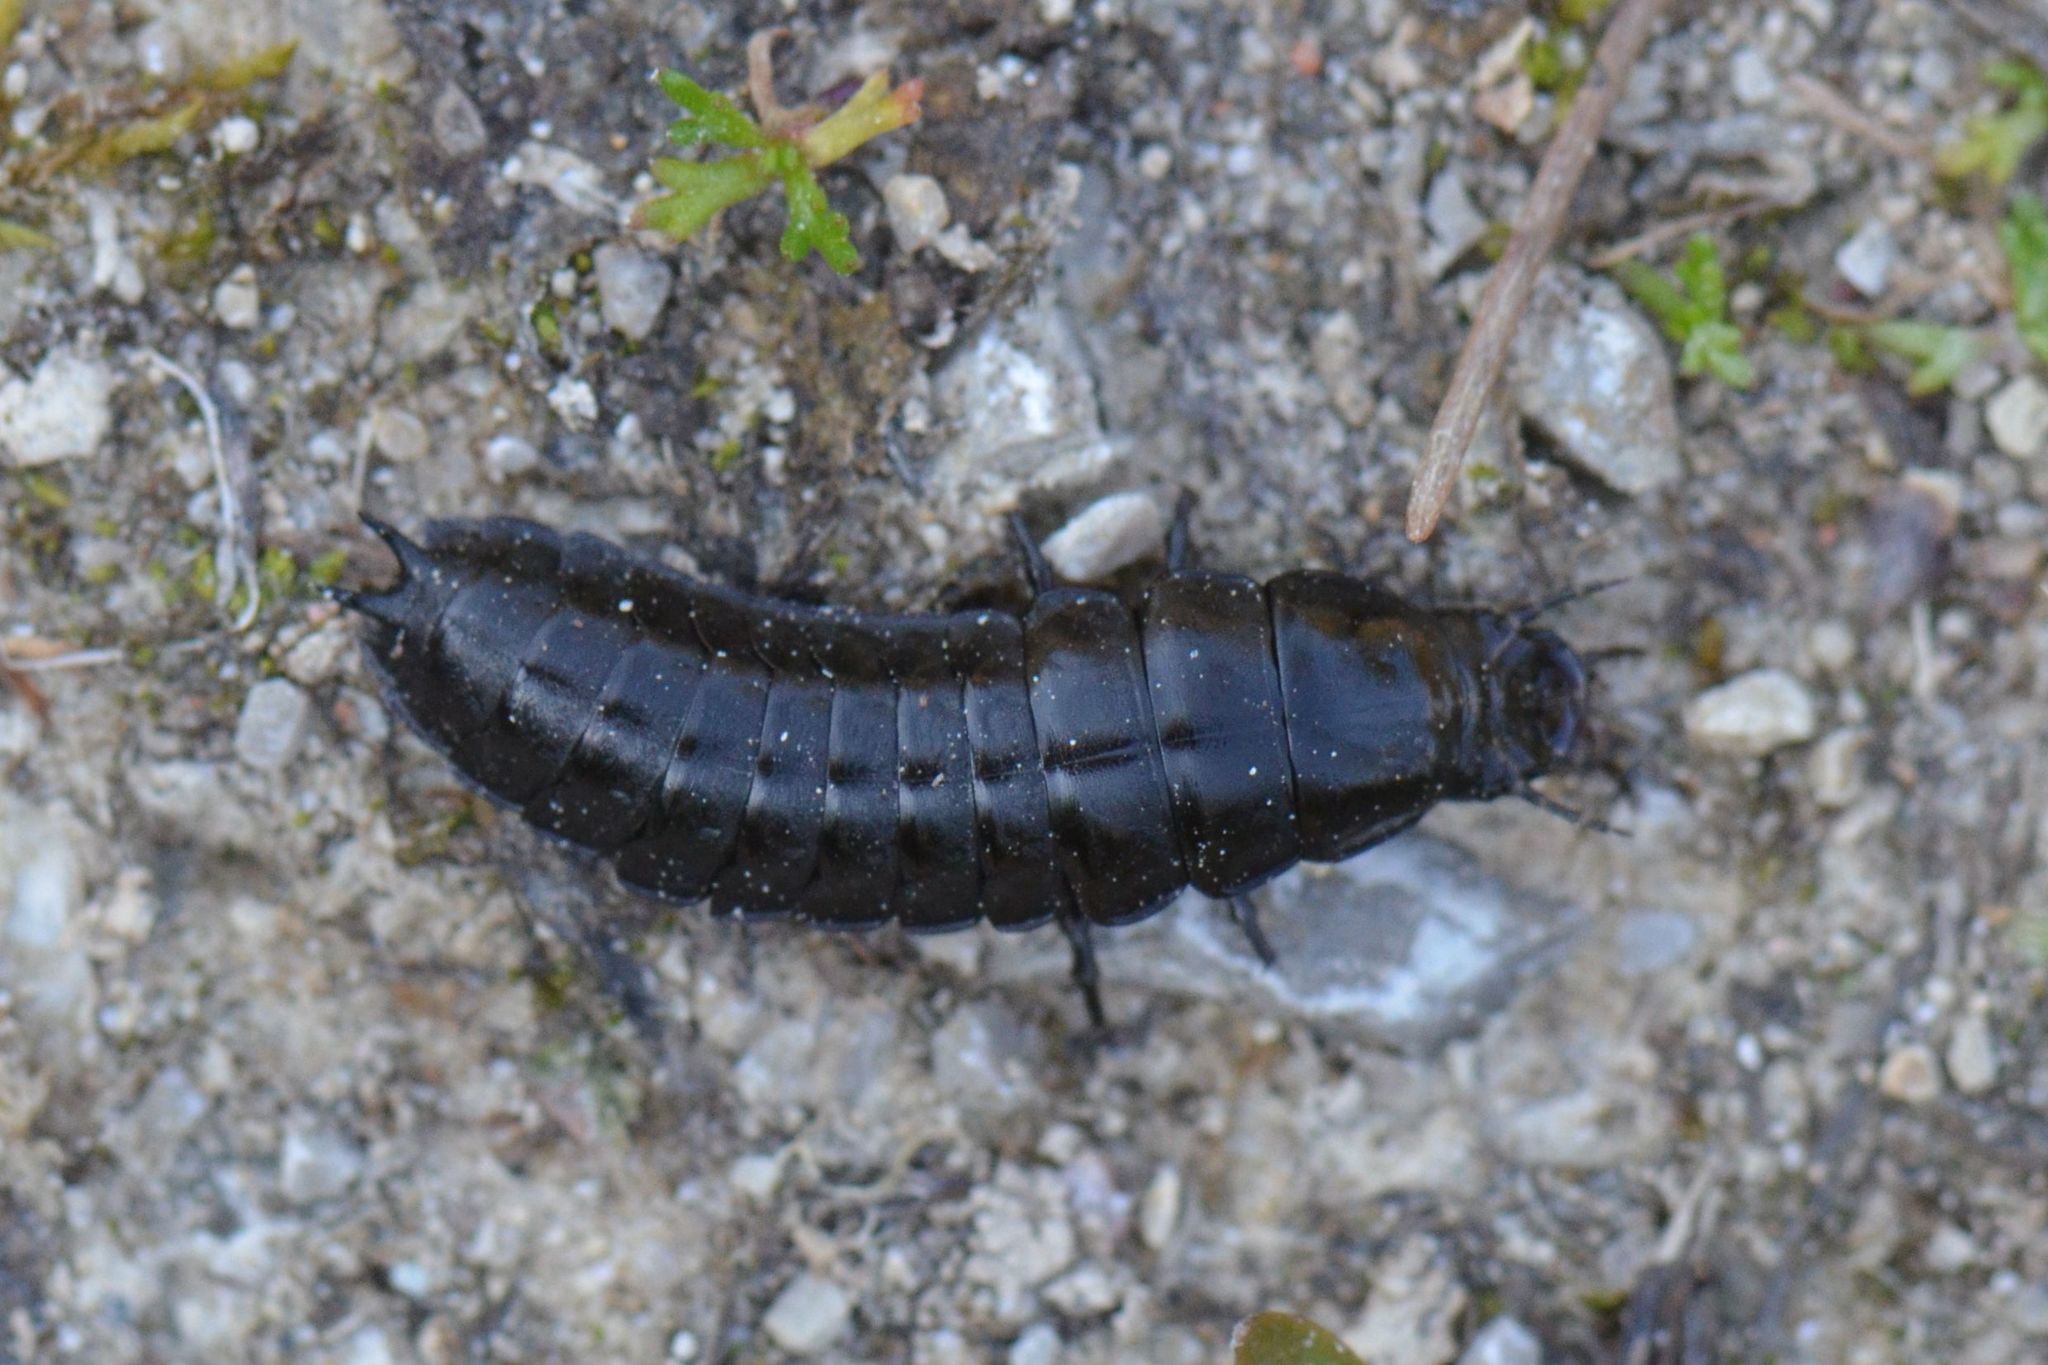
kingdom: Animalia
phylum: Arthropoda
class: Insecta
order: Coleoptera
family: Carabidae
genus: Carabus
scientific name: Carabus
